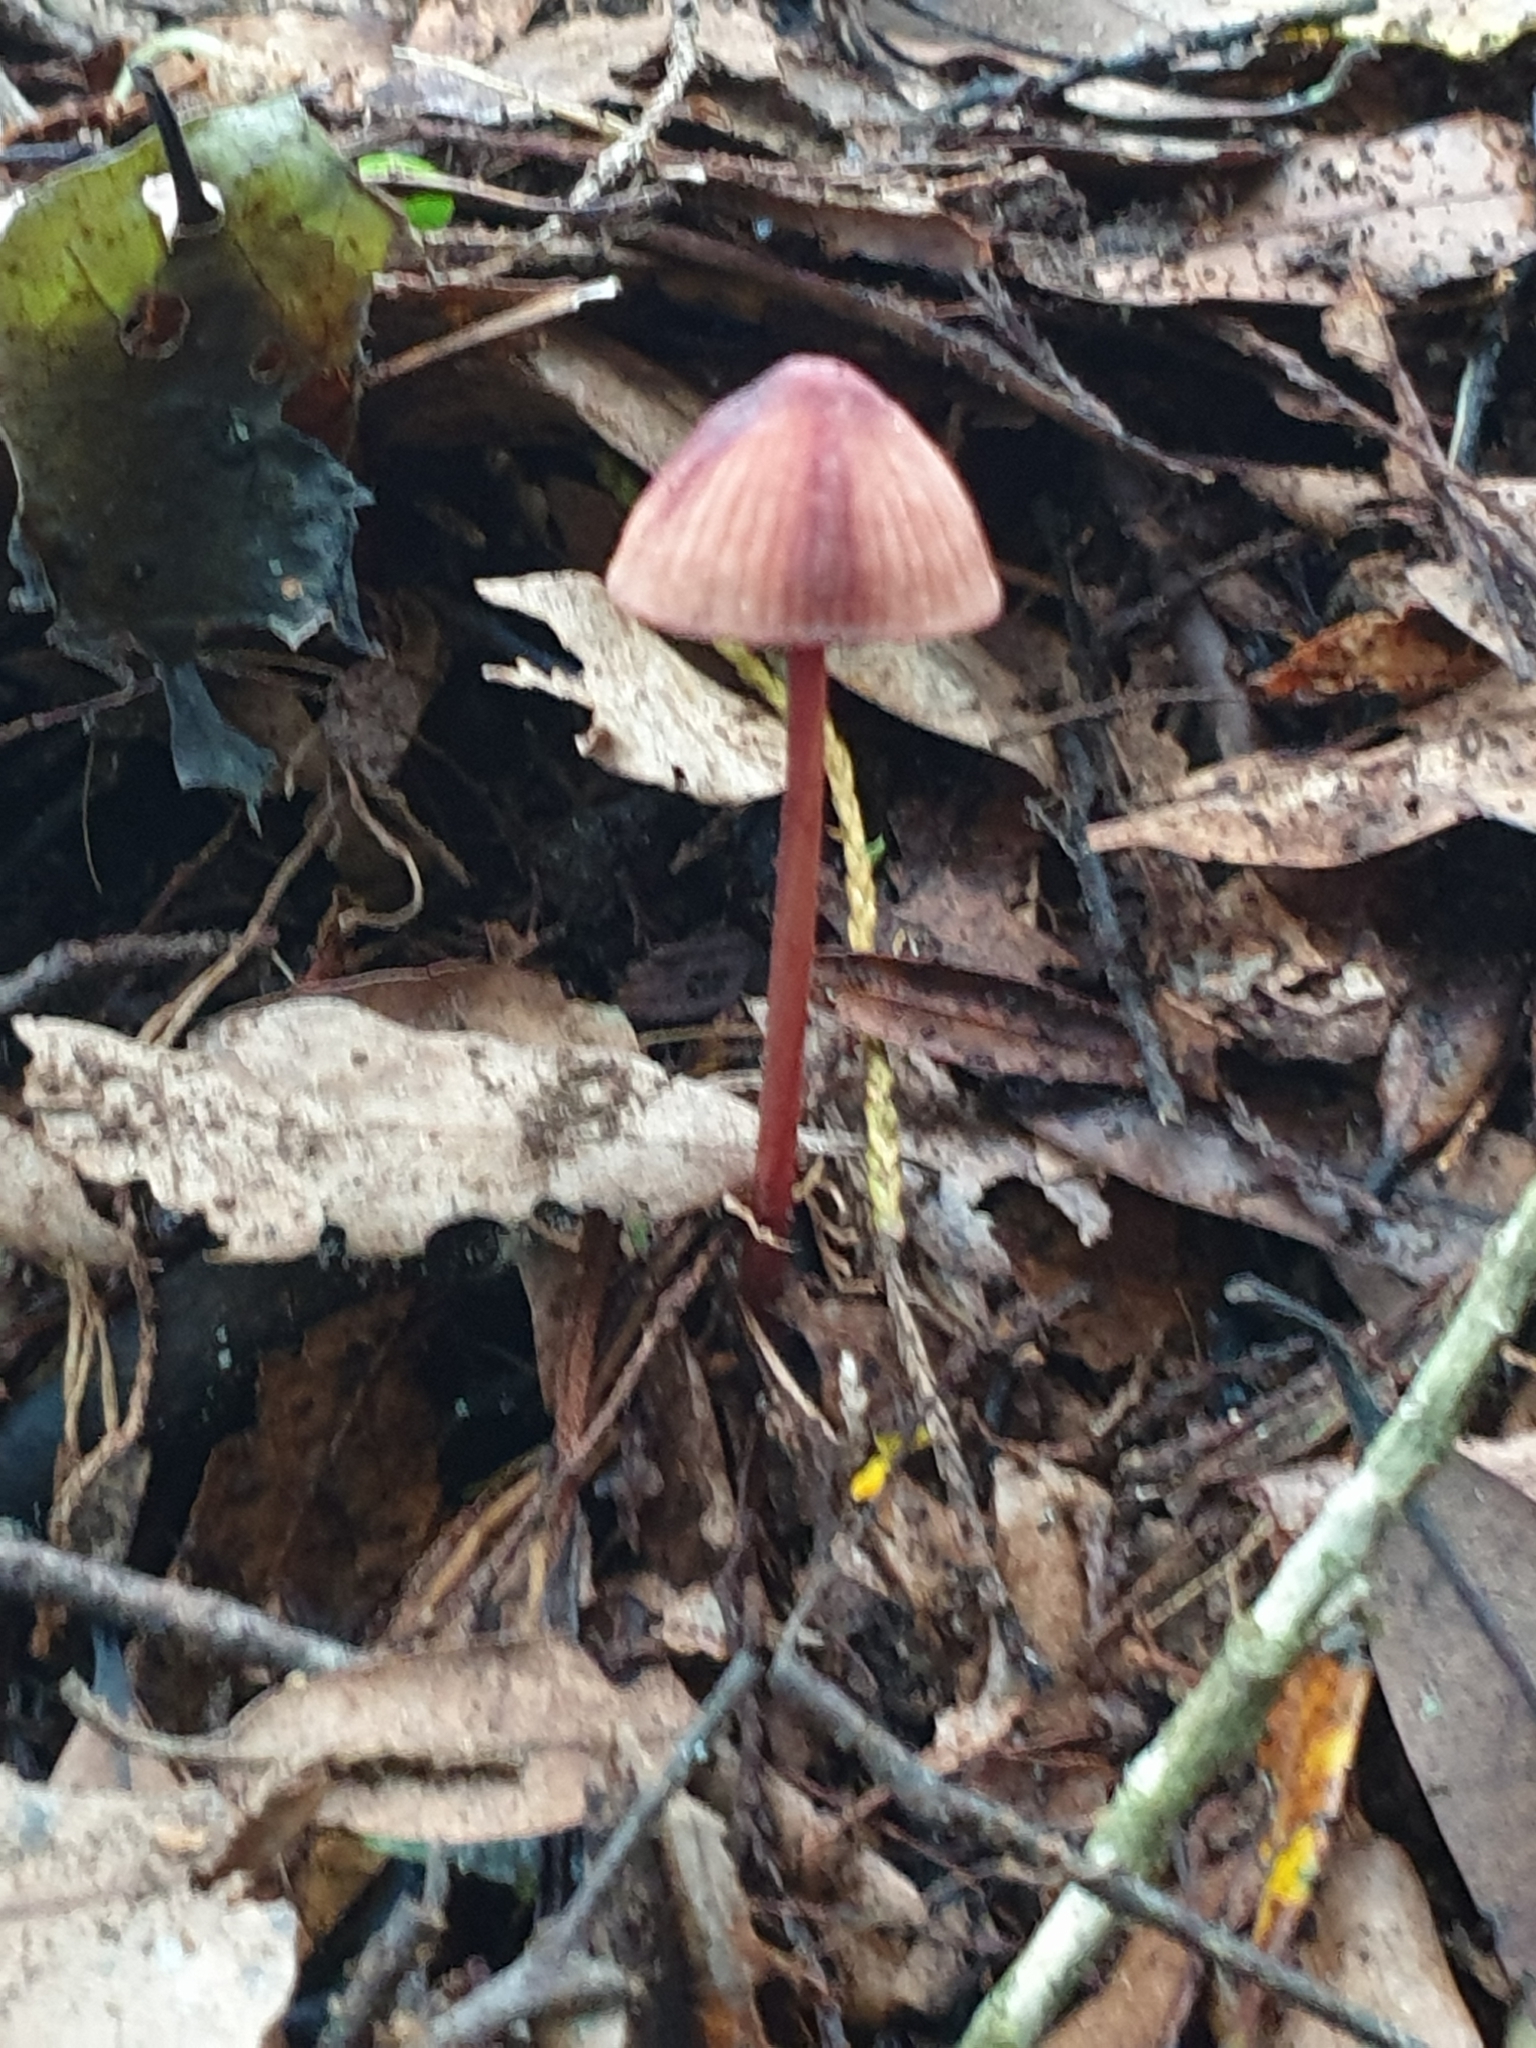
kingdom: Fungi
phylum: Basidiomycota
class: Agaricomycetes
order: Agaricales
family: Mycenaceae
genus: Mycena
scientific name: Mycena mariae
